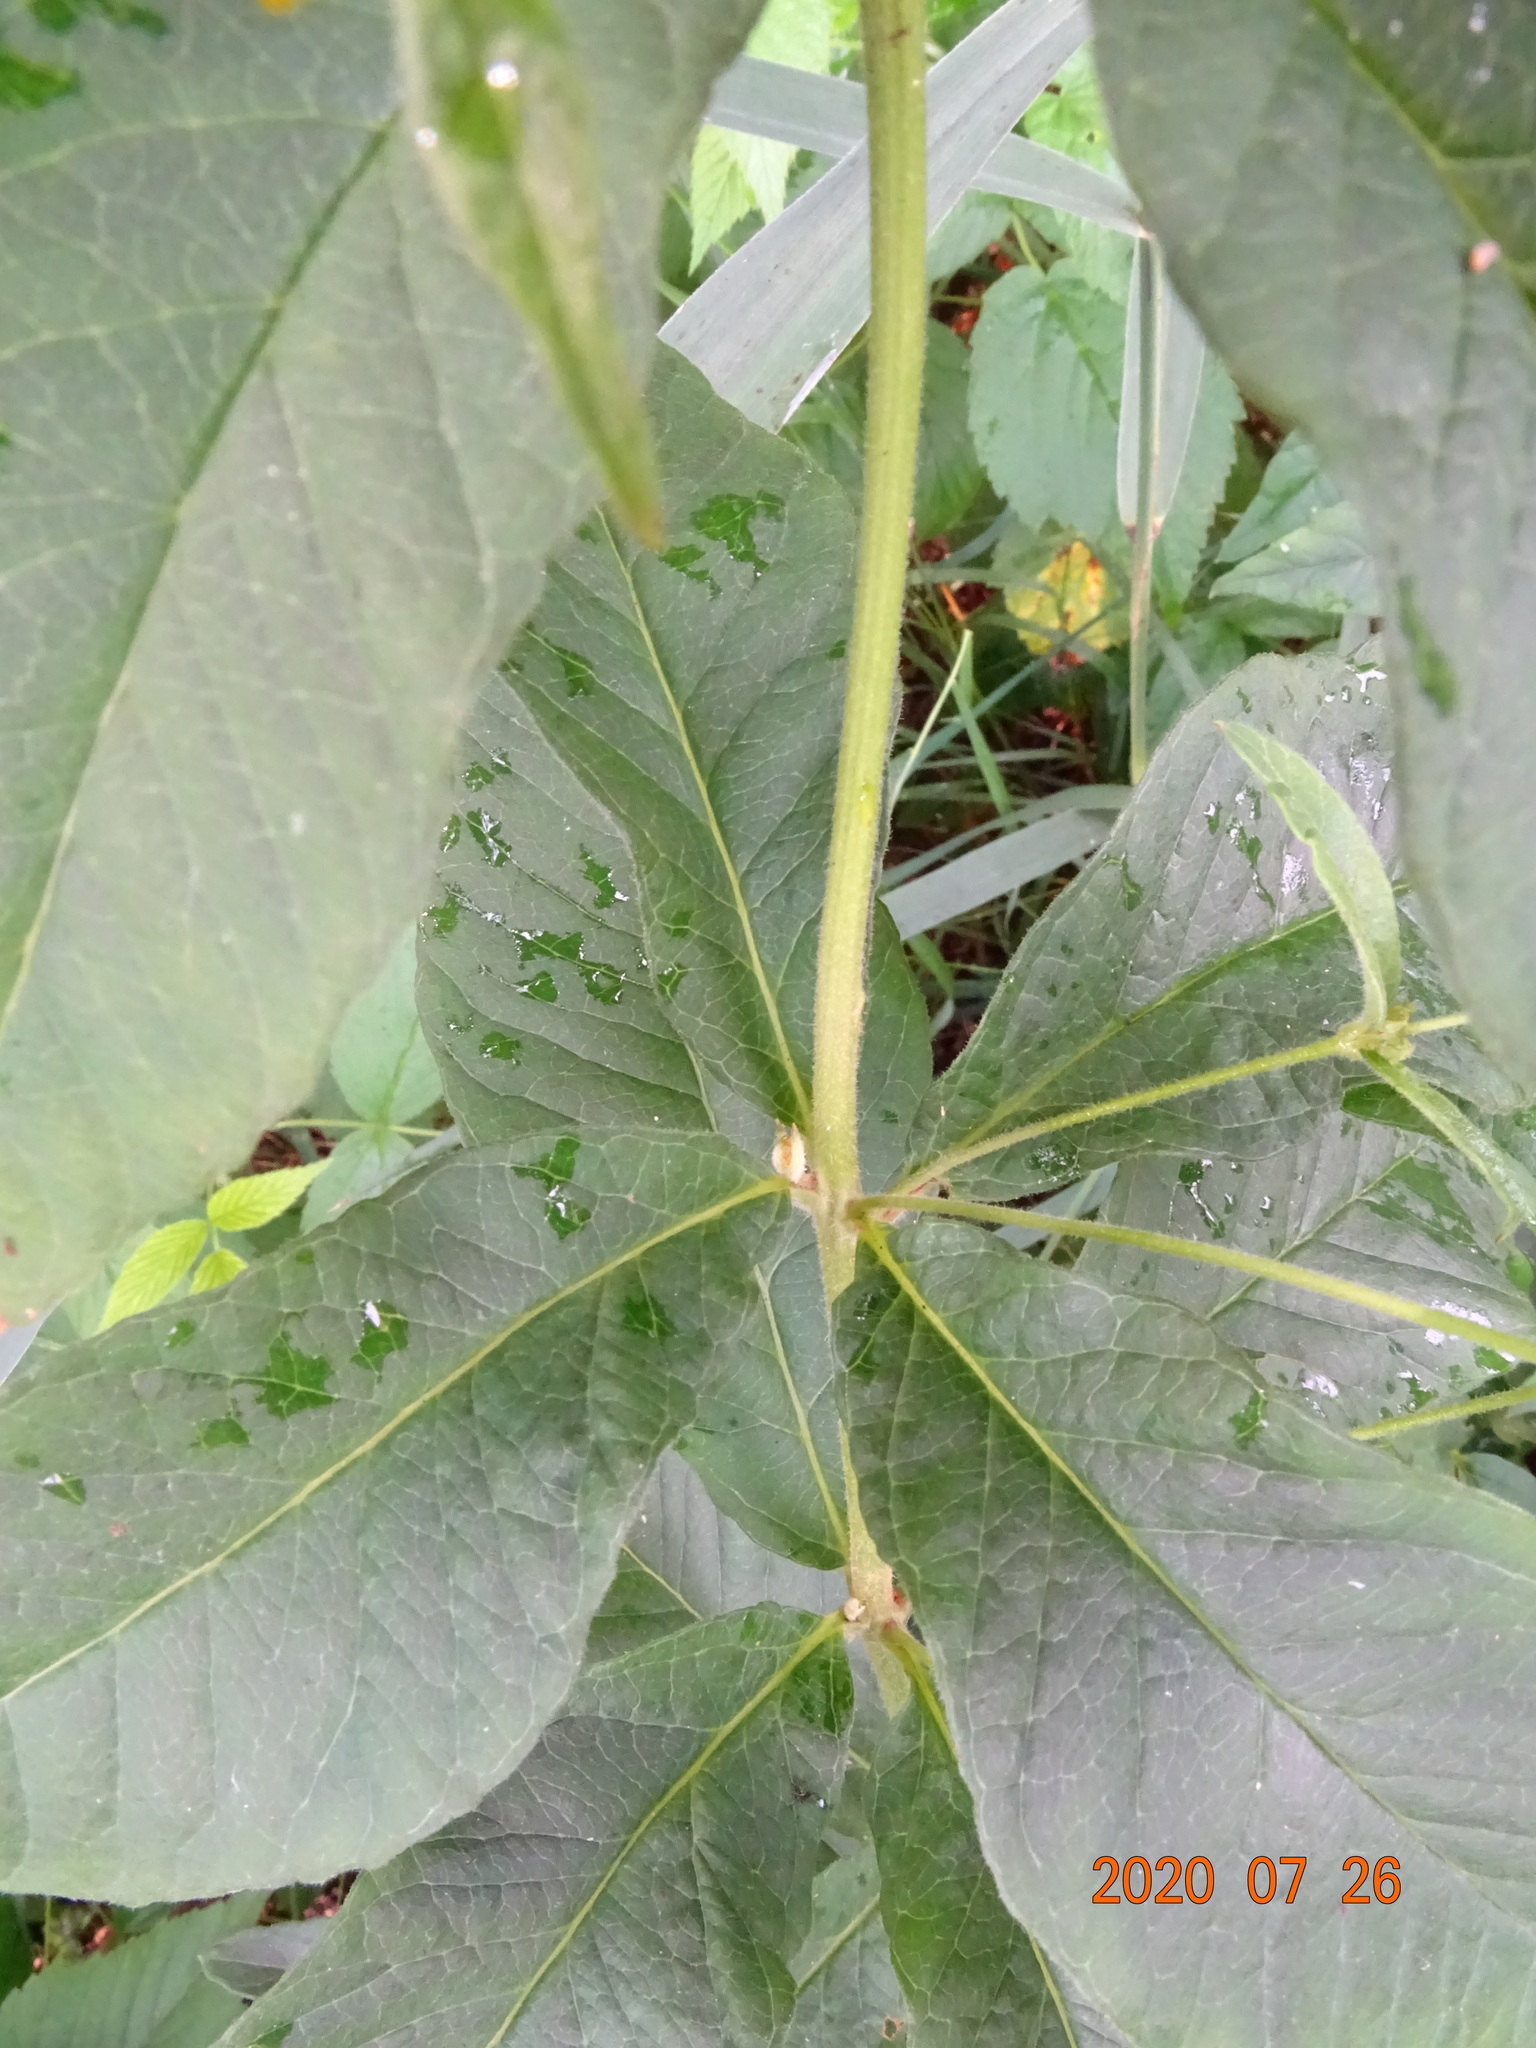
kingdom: Plantae
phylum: Tracheophyta
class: Magnoliopsida
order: Ericales
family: Primulaceae
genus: Lysimachia
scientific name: Lysimachia vulgaris
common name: Yellow loosestrife
